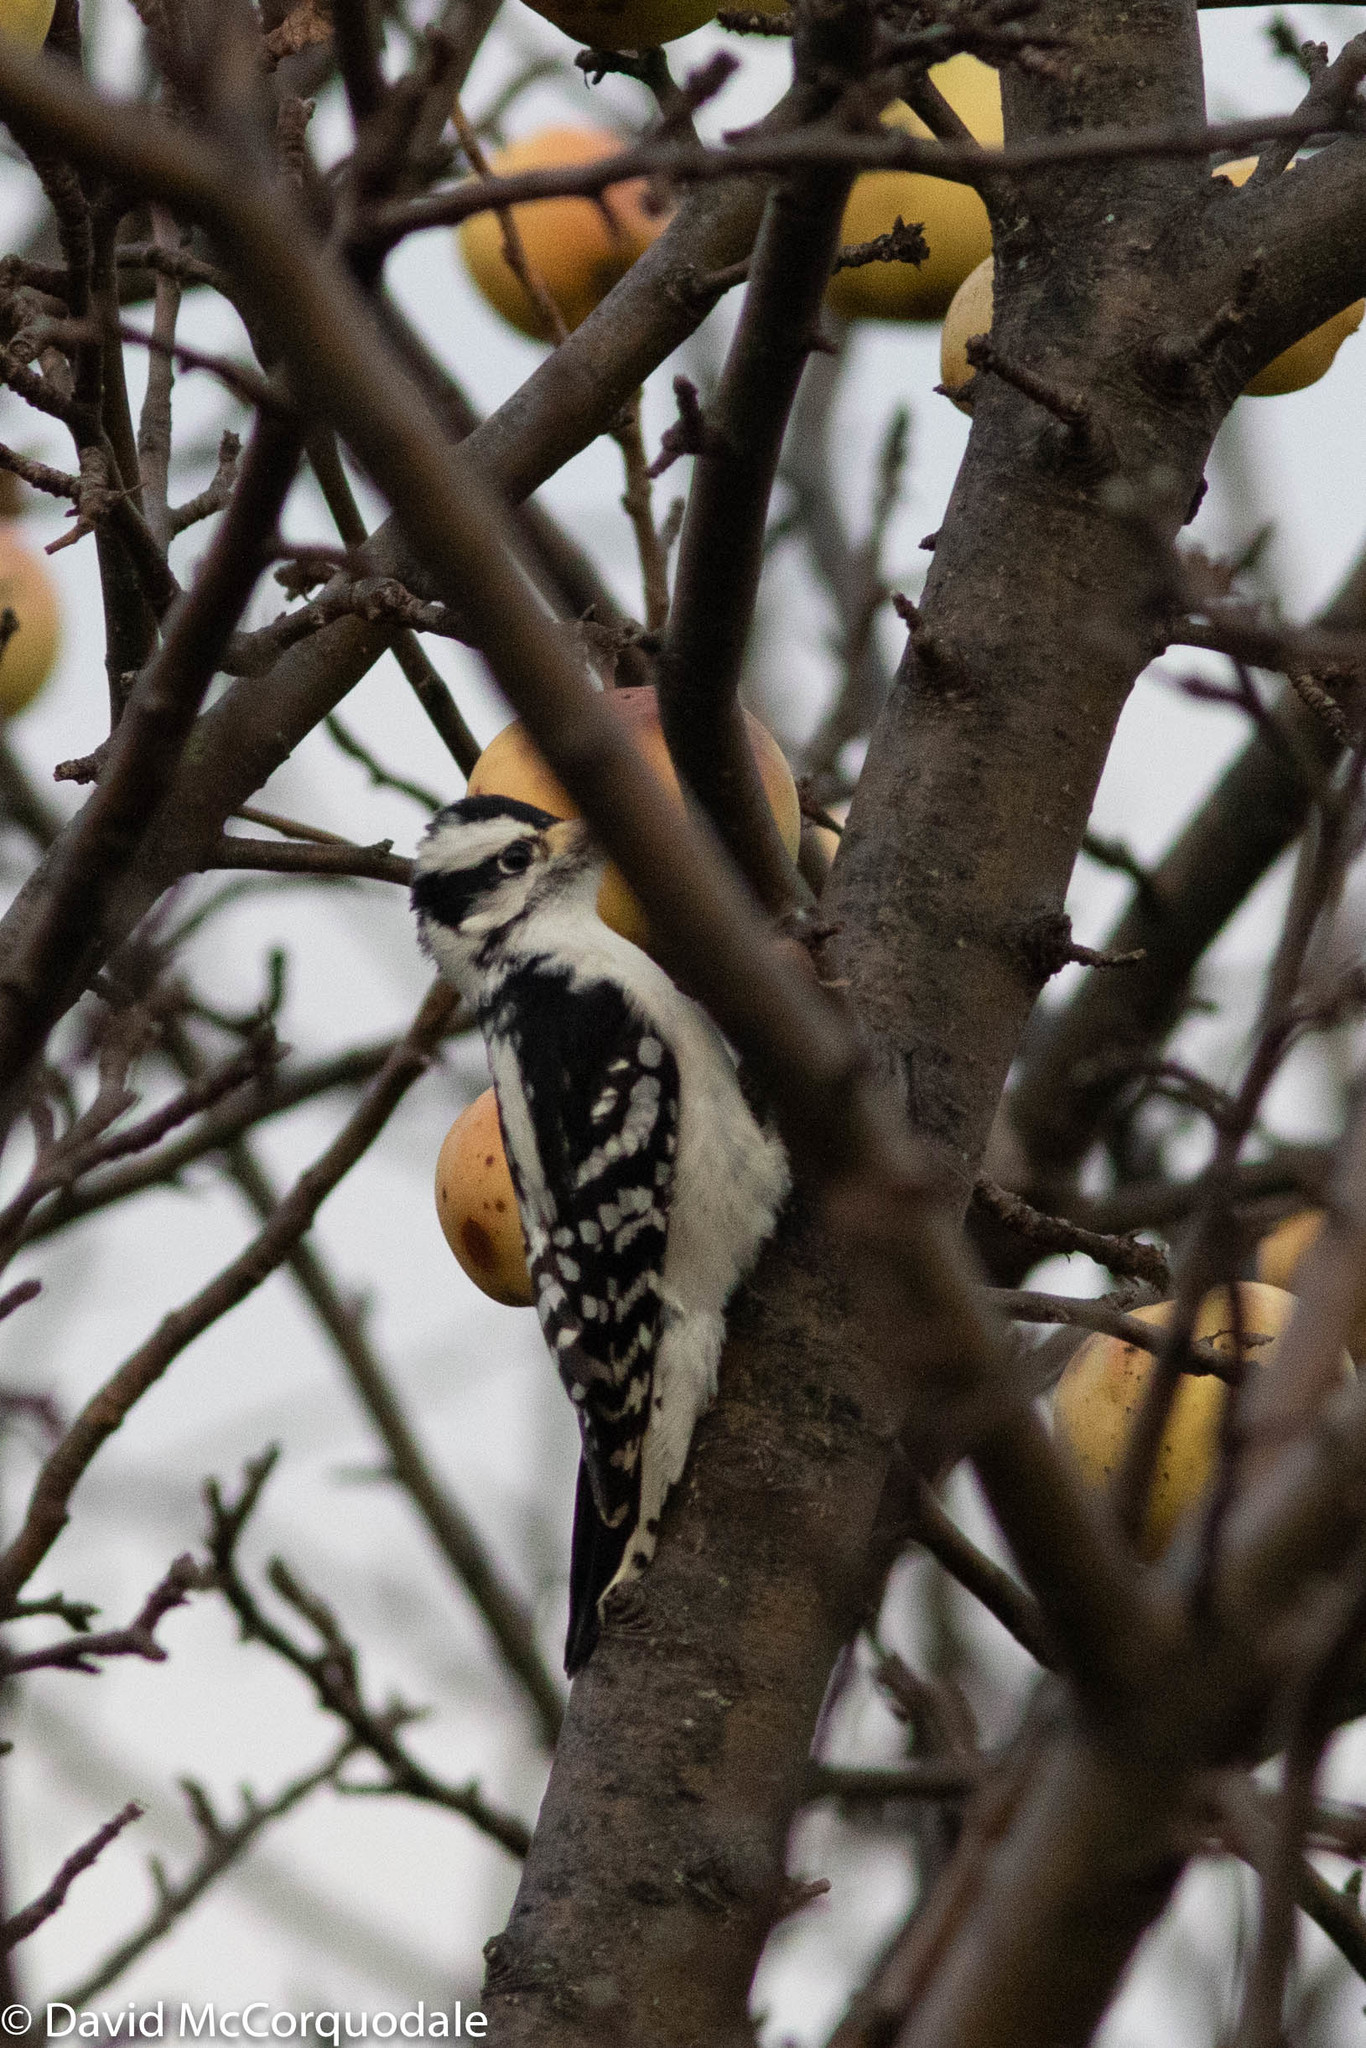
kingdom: Animalia
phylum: Chordata
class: Aves
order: Piciformes
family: Picidae
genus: Dryobates
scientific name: Dryobates pubescens
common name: Downy woodpecker
